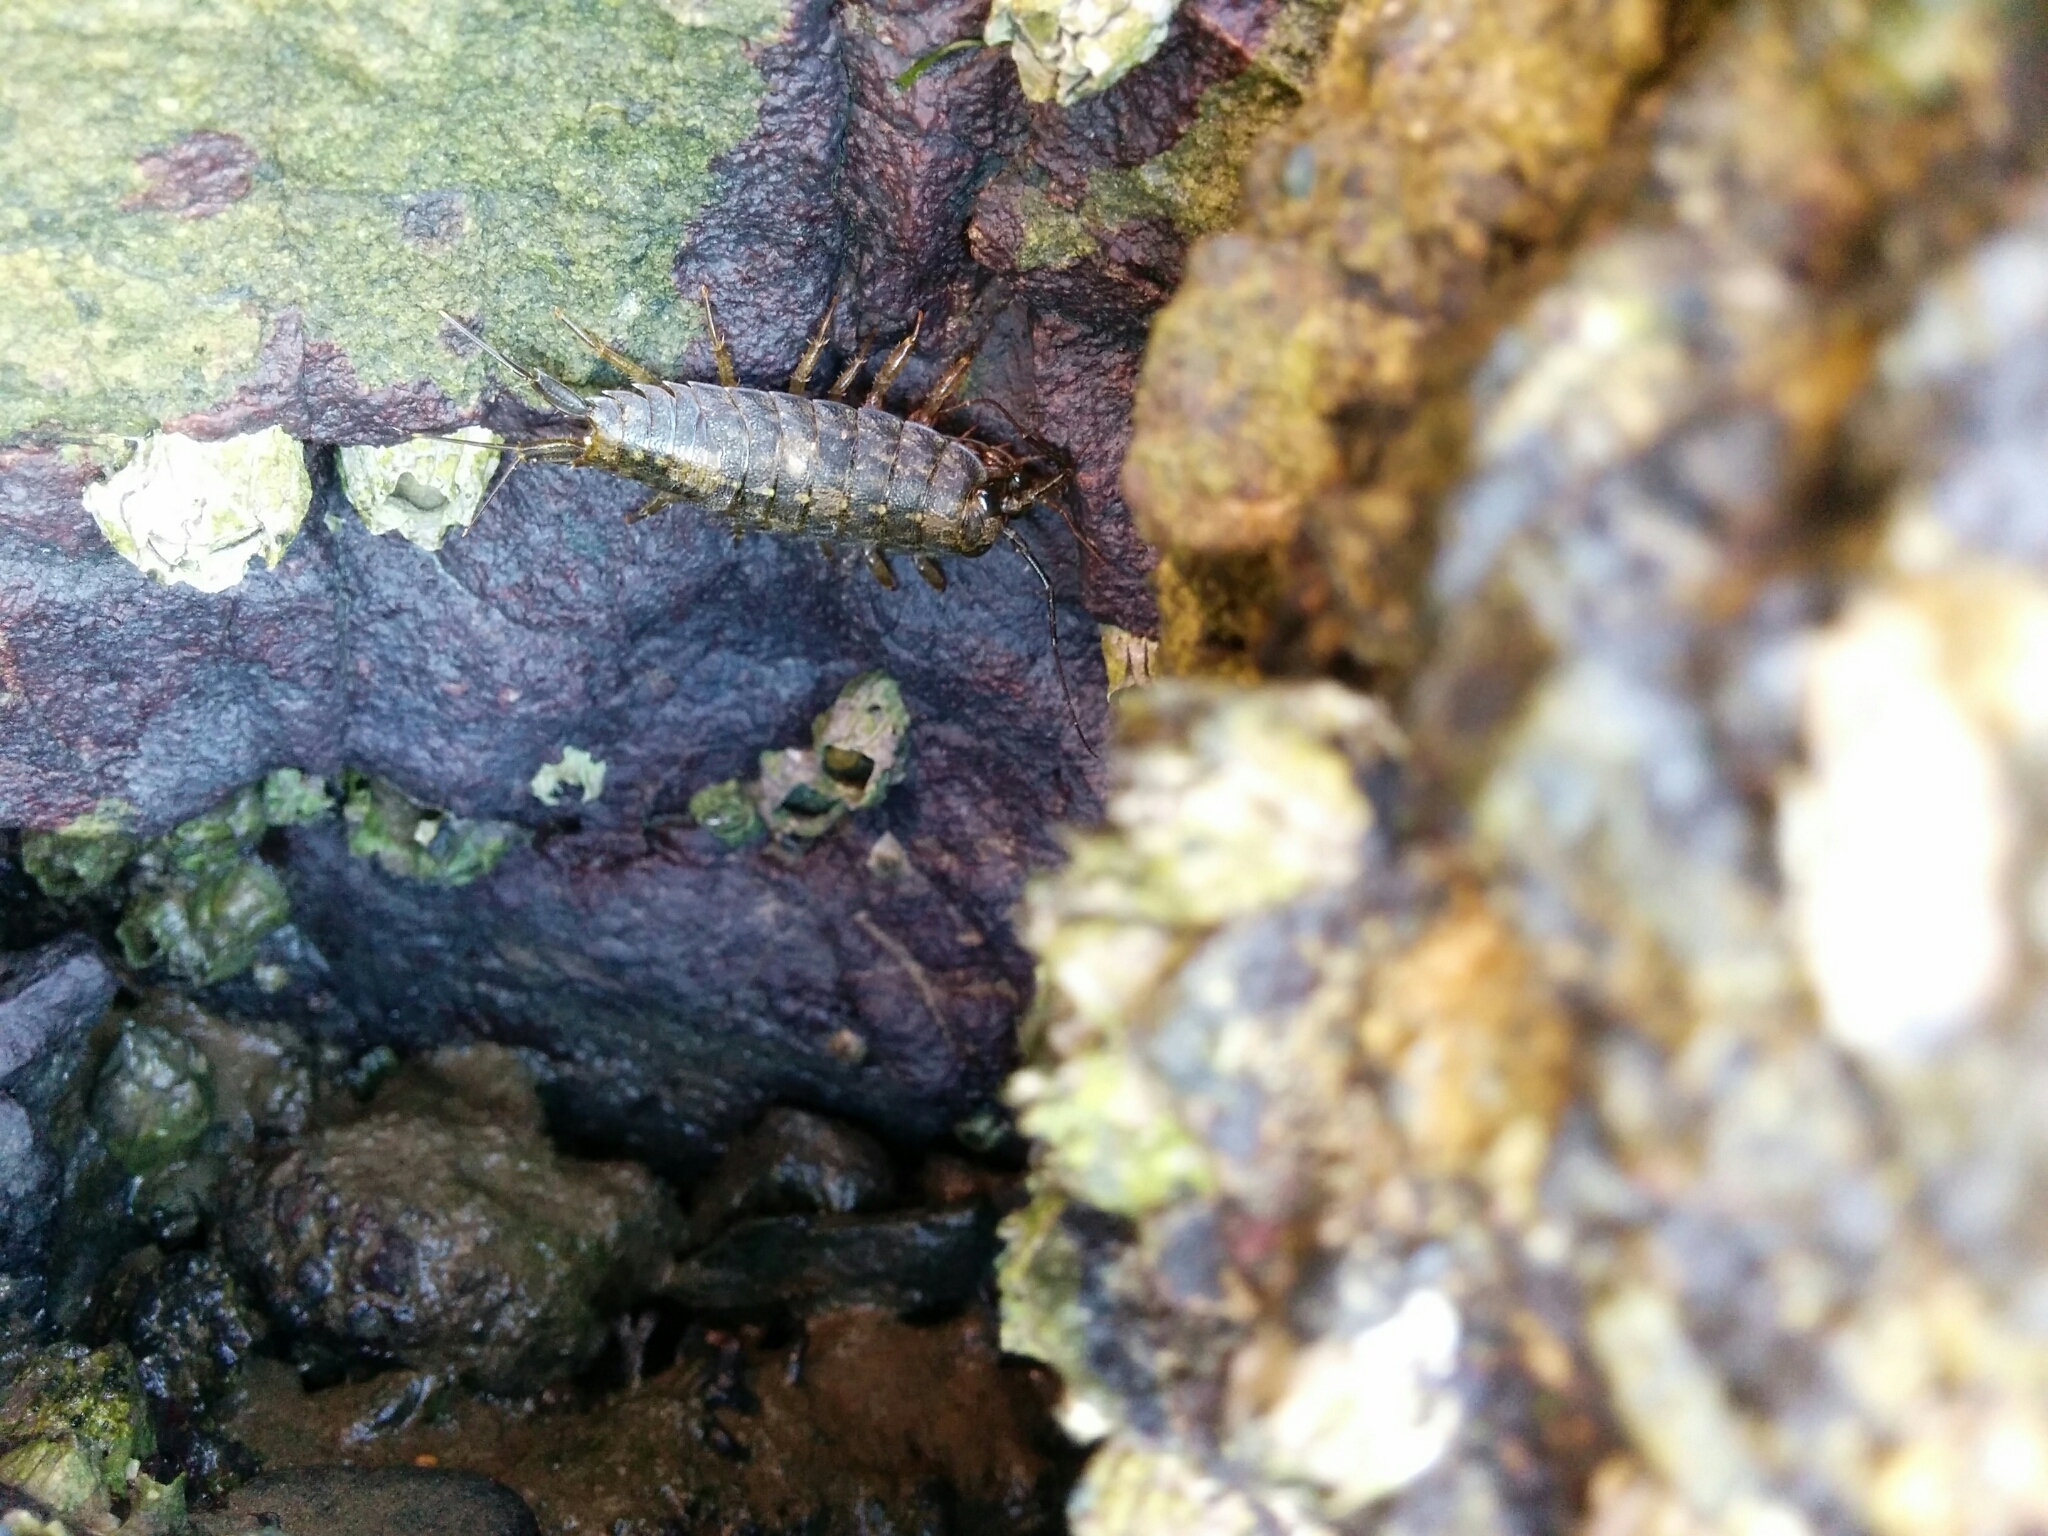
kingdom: Animalia
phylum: Arthropoda
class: Malacostraca
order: Isopoda
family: Ligiidae
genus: Ligia
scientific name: Ligia occidentalis
